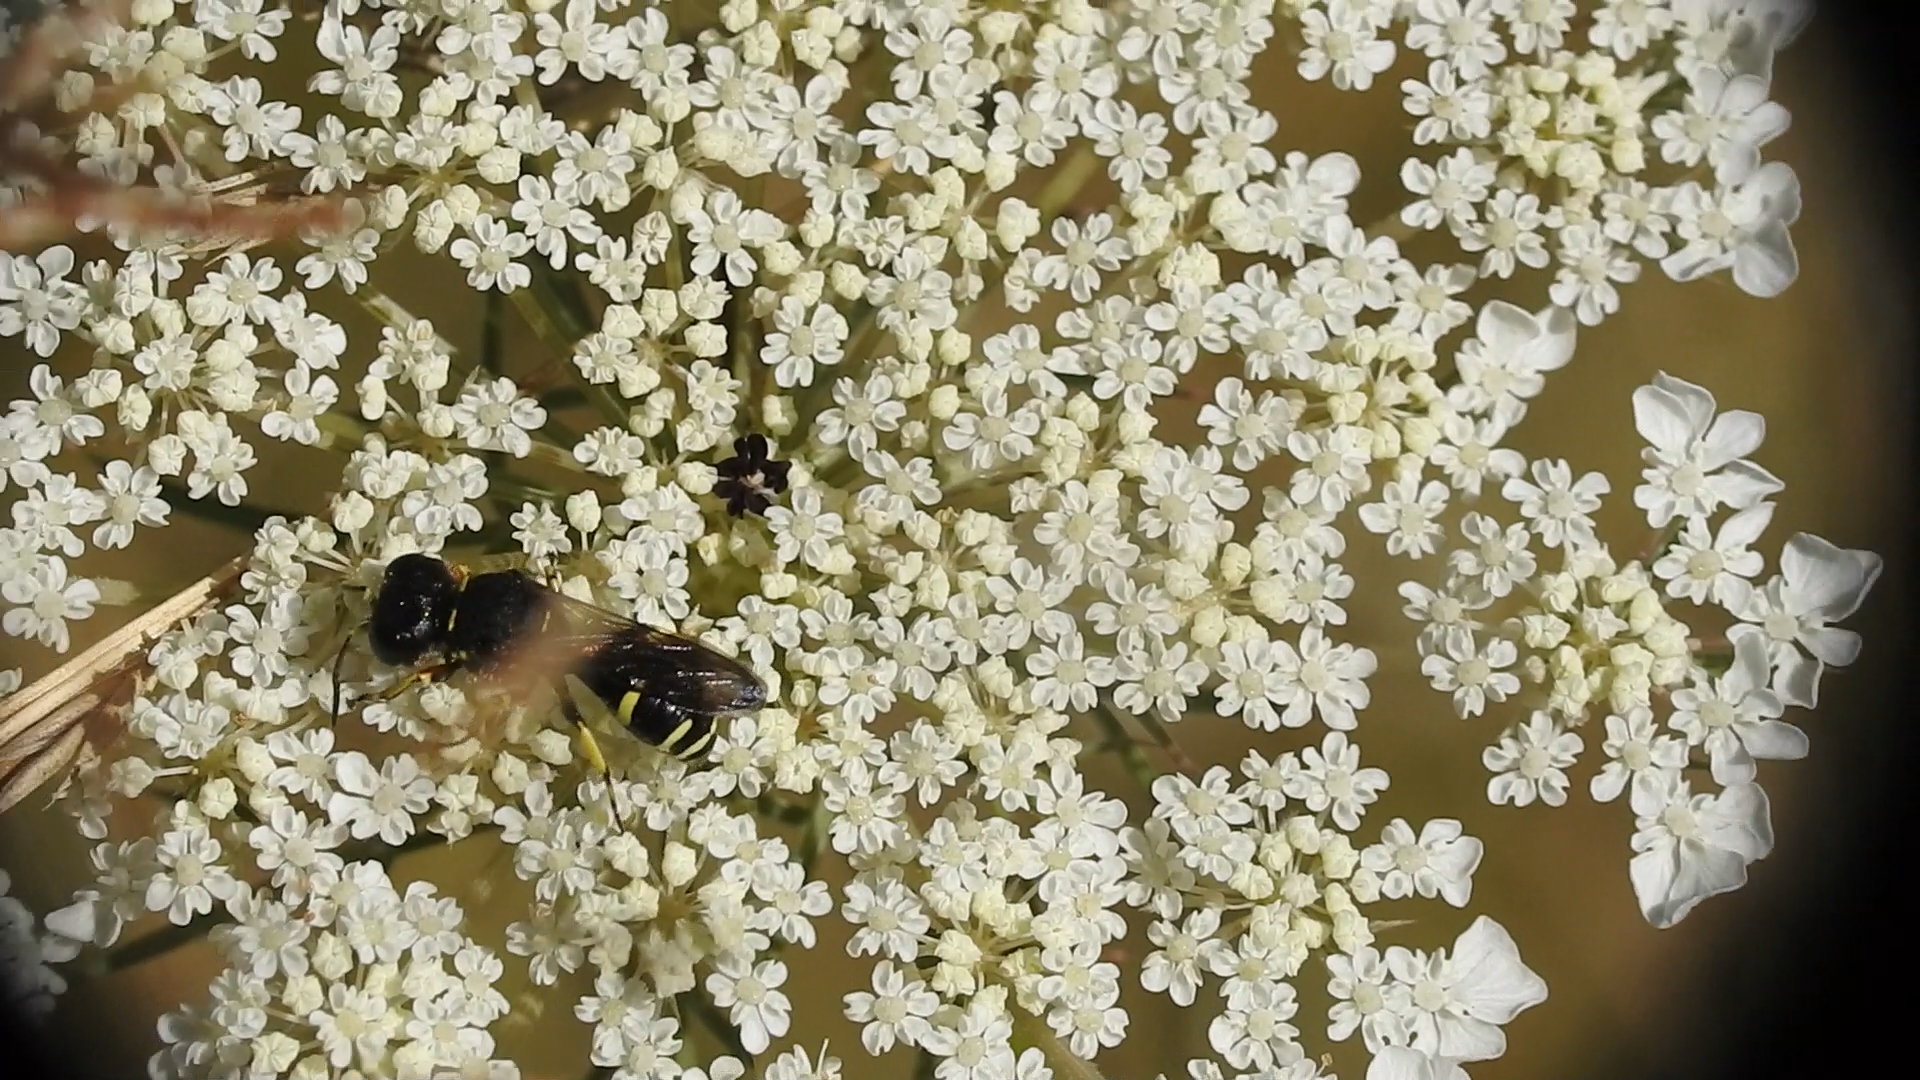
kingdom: Animalia
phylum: Arthropoda
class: Insecta
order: Hymenoptera
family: Crabronidae
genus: Ectemnius
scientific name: Ectemnius continuus
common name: Common ectemnius
